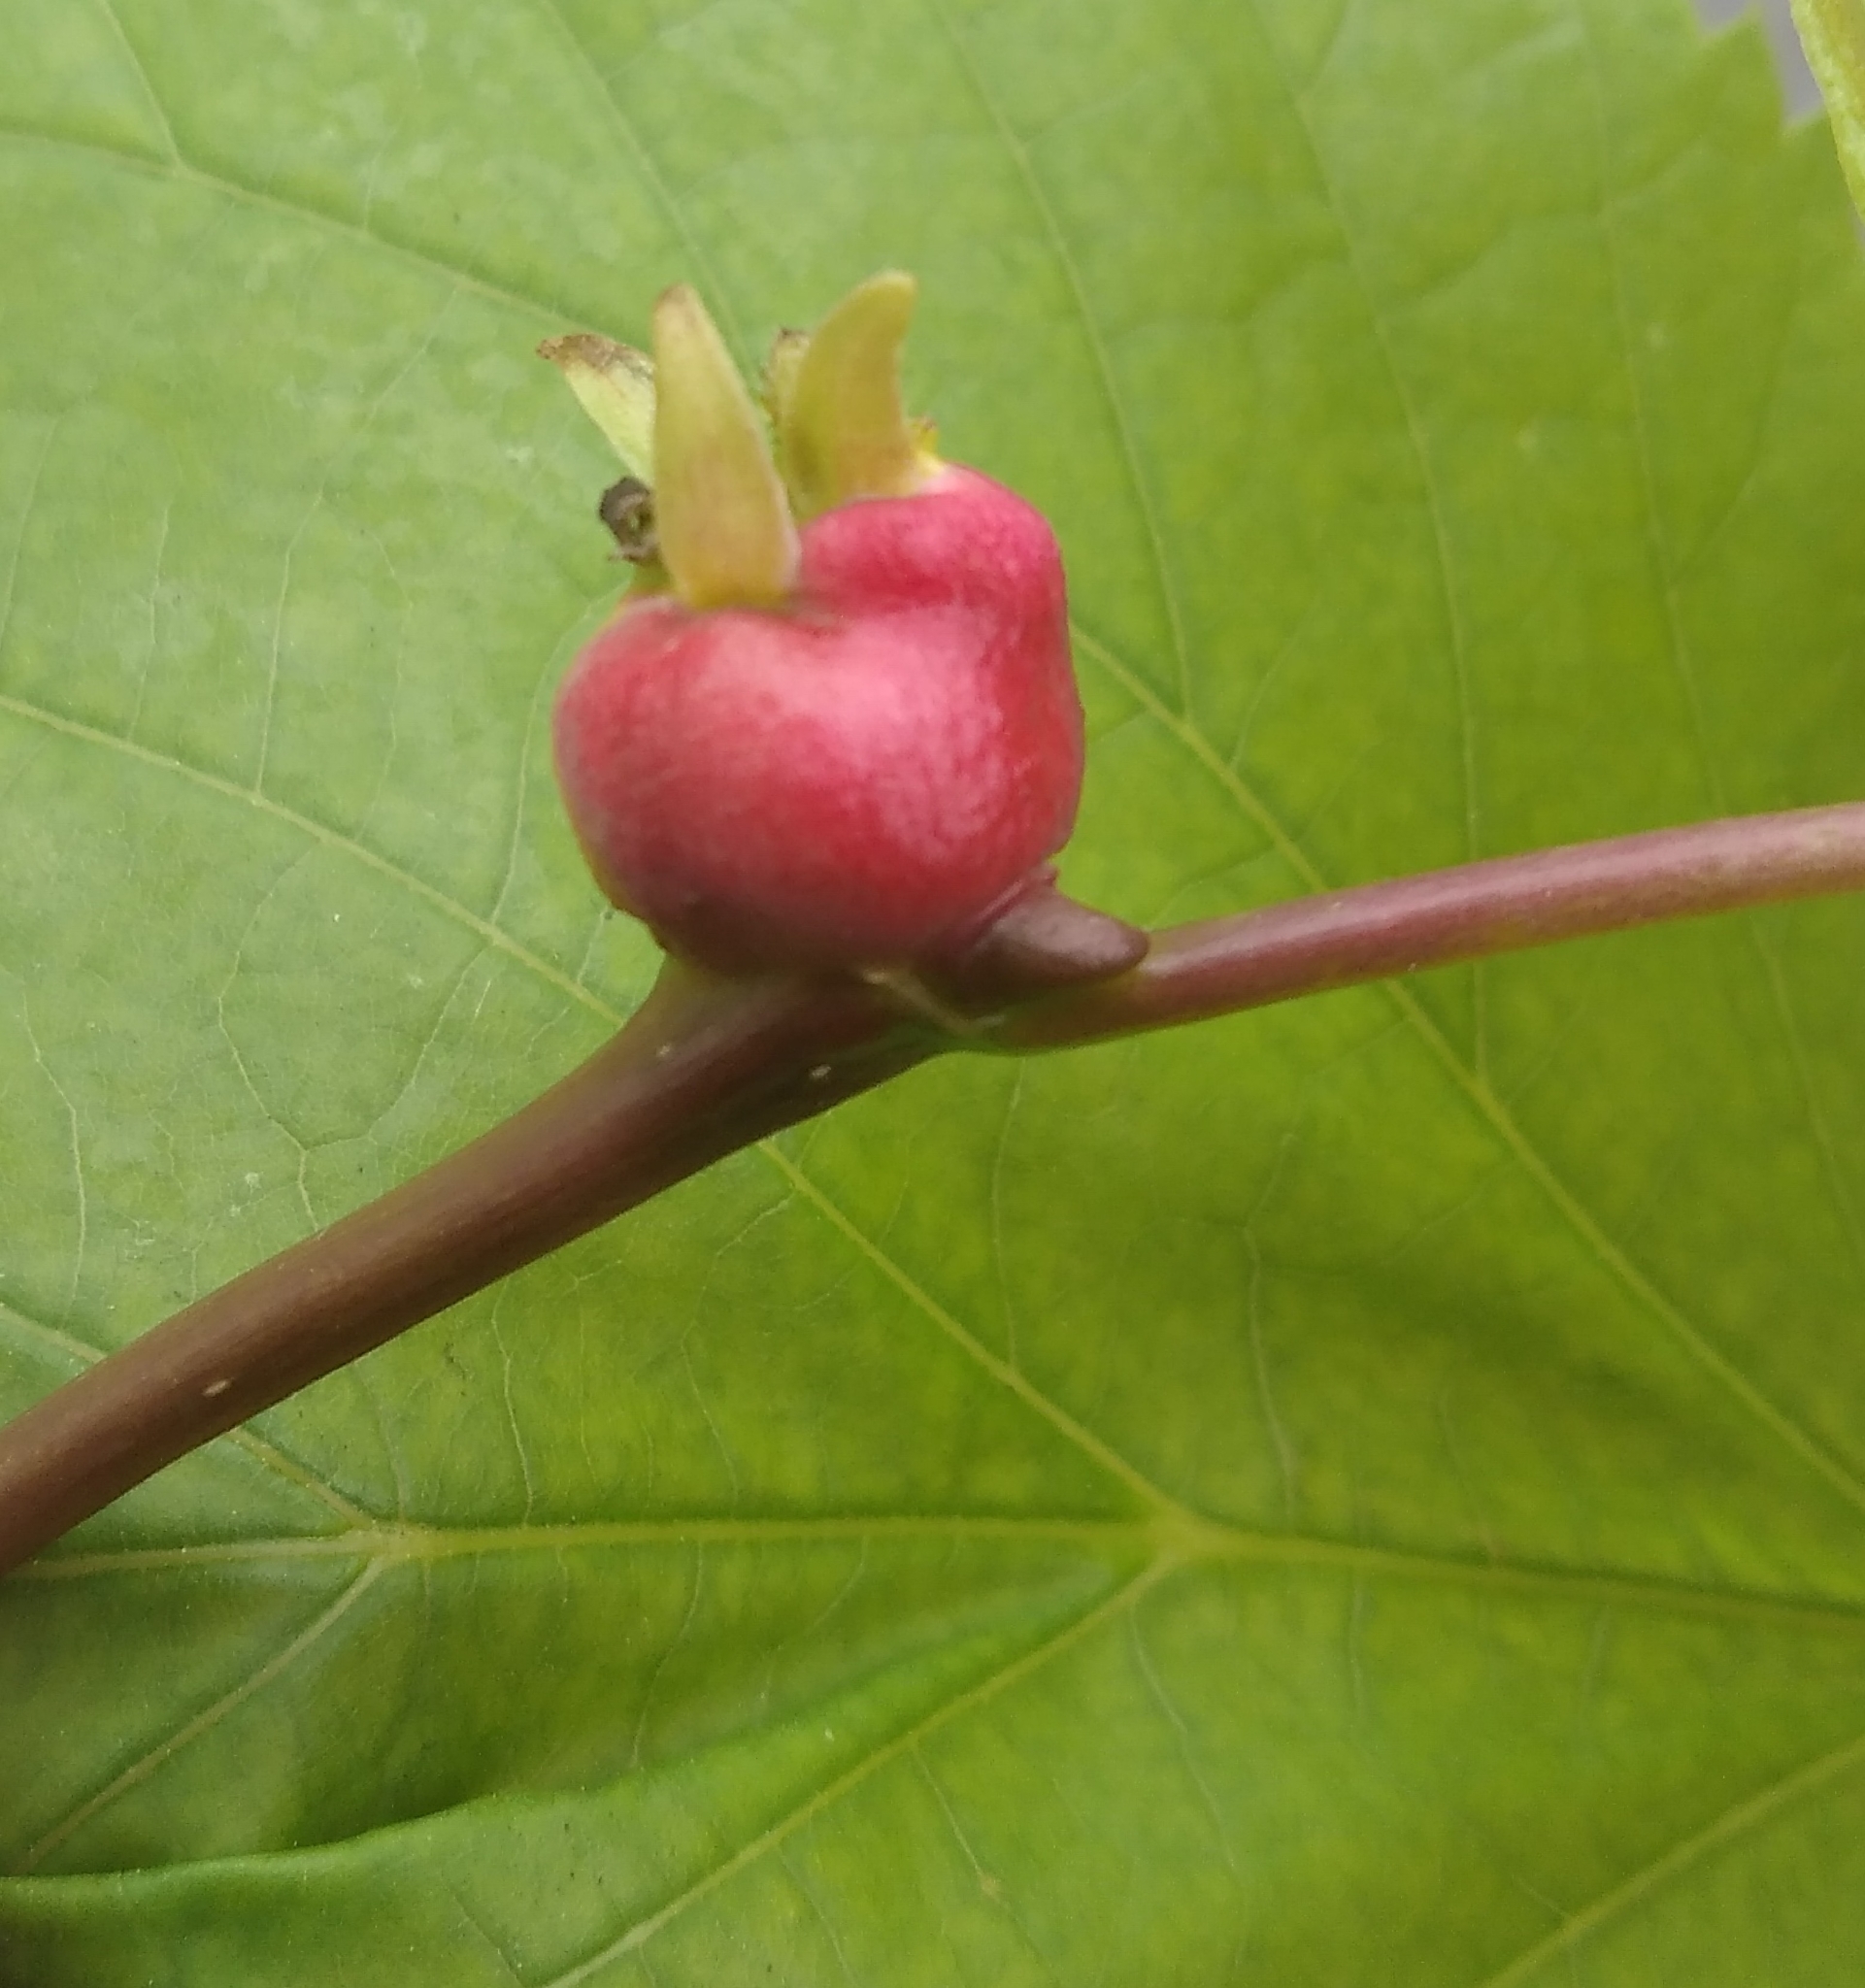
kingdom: Animalia
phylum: Arthropoda
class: Insecta
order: Diptera
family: Cecidomyiidae
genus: Contarinia
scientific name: Contarinia tiliarum
